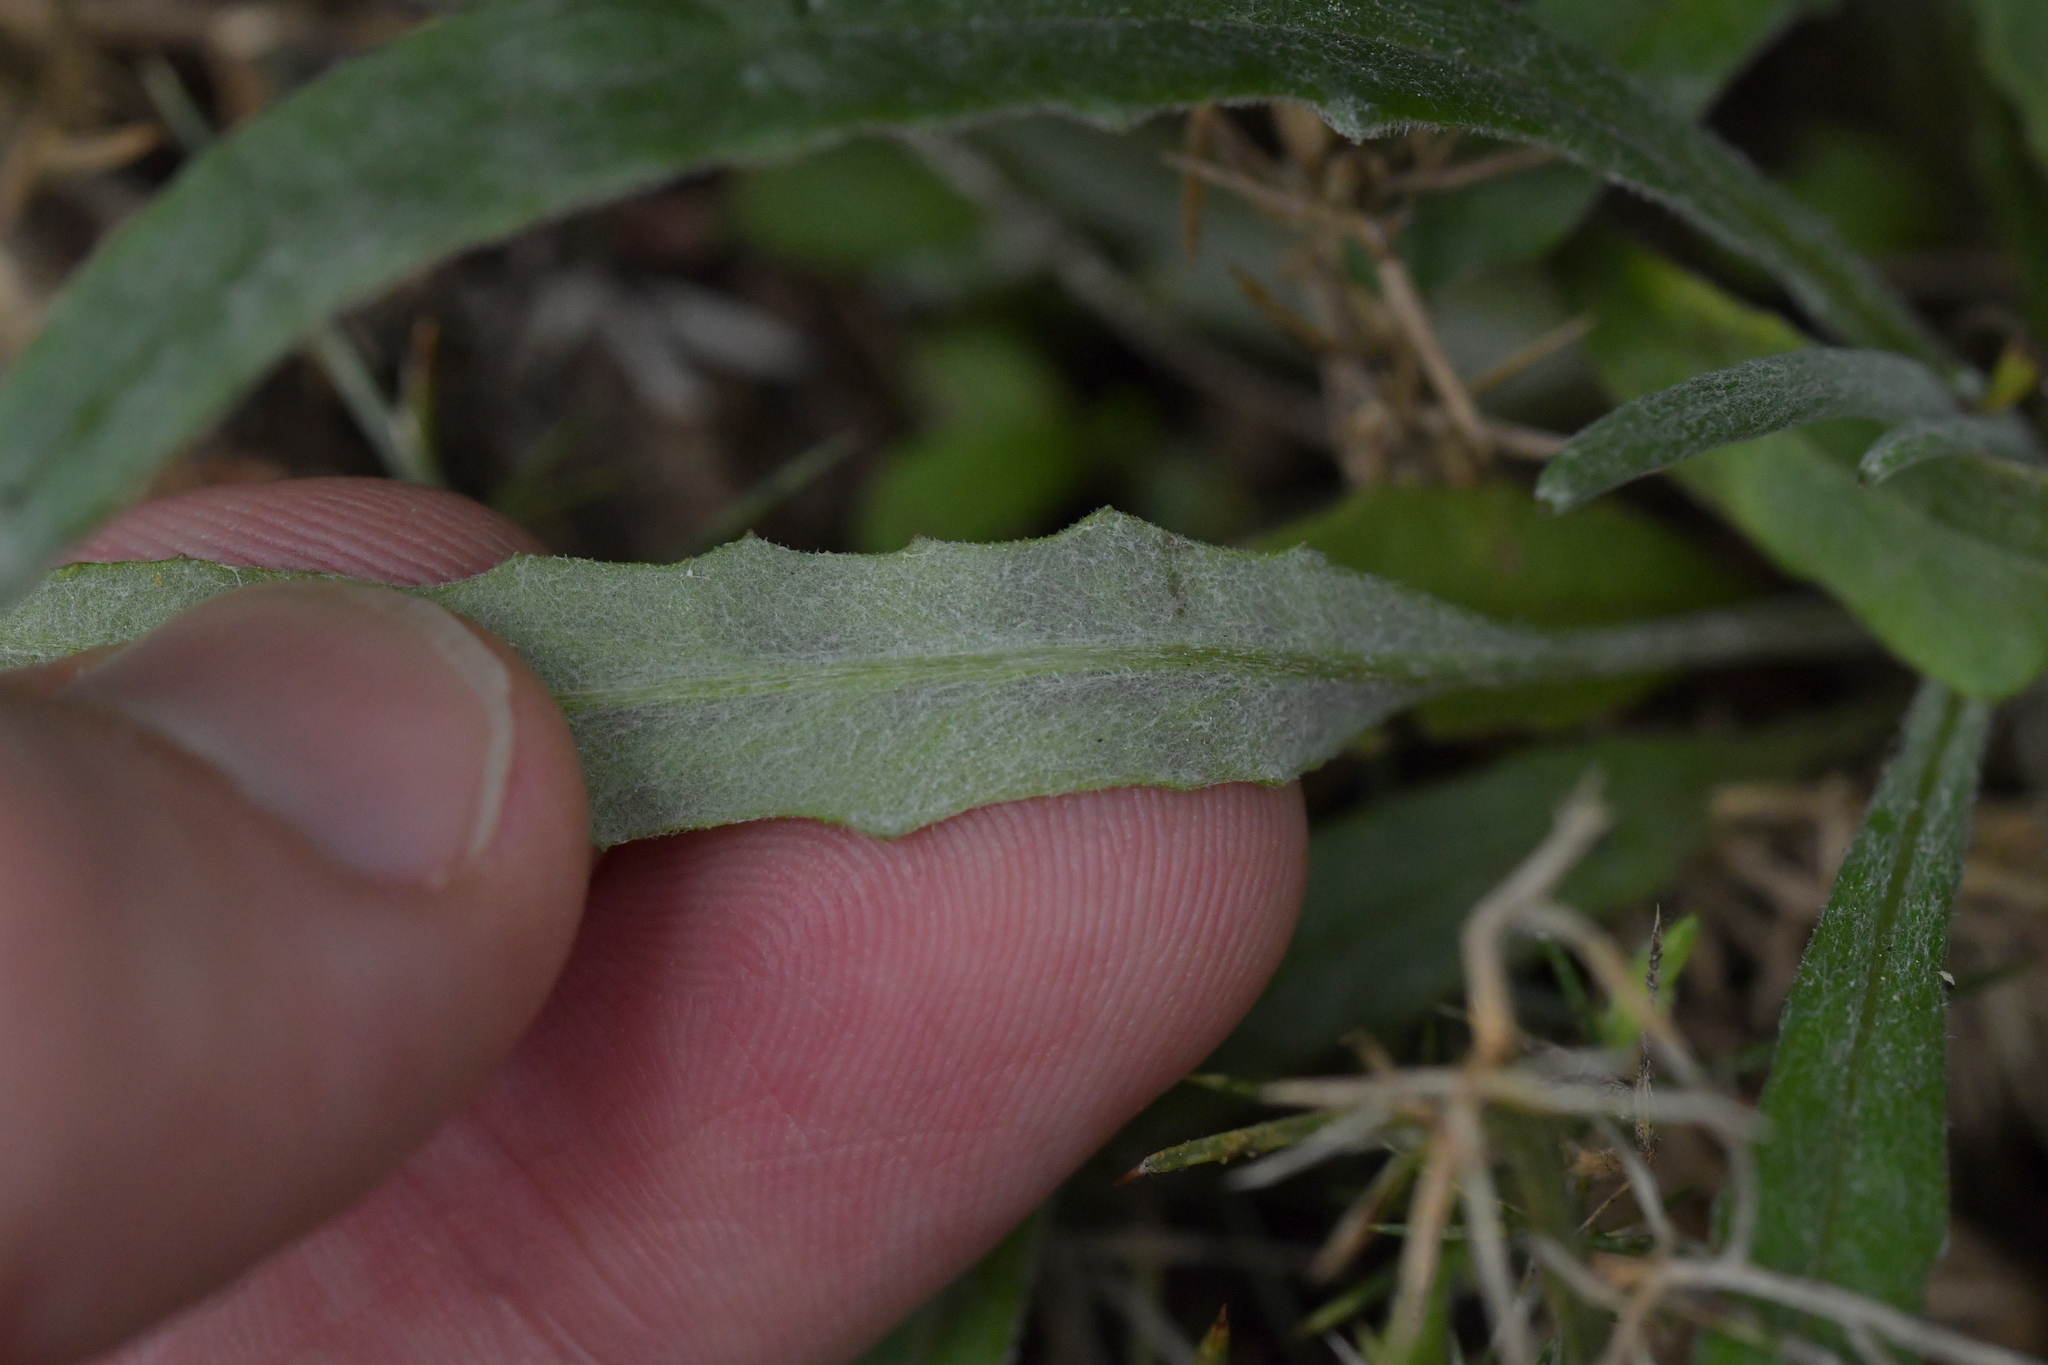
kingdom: Plantae
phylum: Tracheophyta
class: Magnoliopsida
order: Asterales
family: Asteraceae
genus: Senecio
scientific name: Senecio quadridentatus
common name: Cotton fireweed
